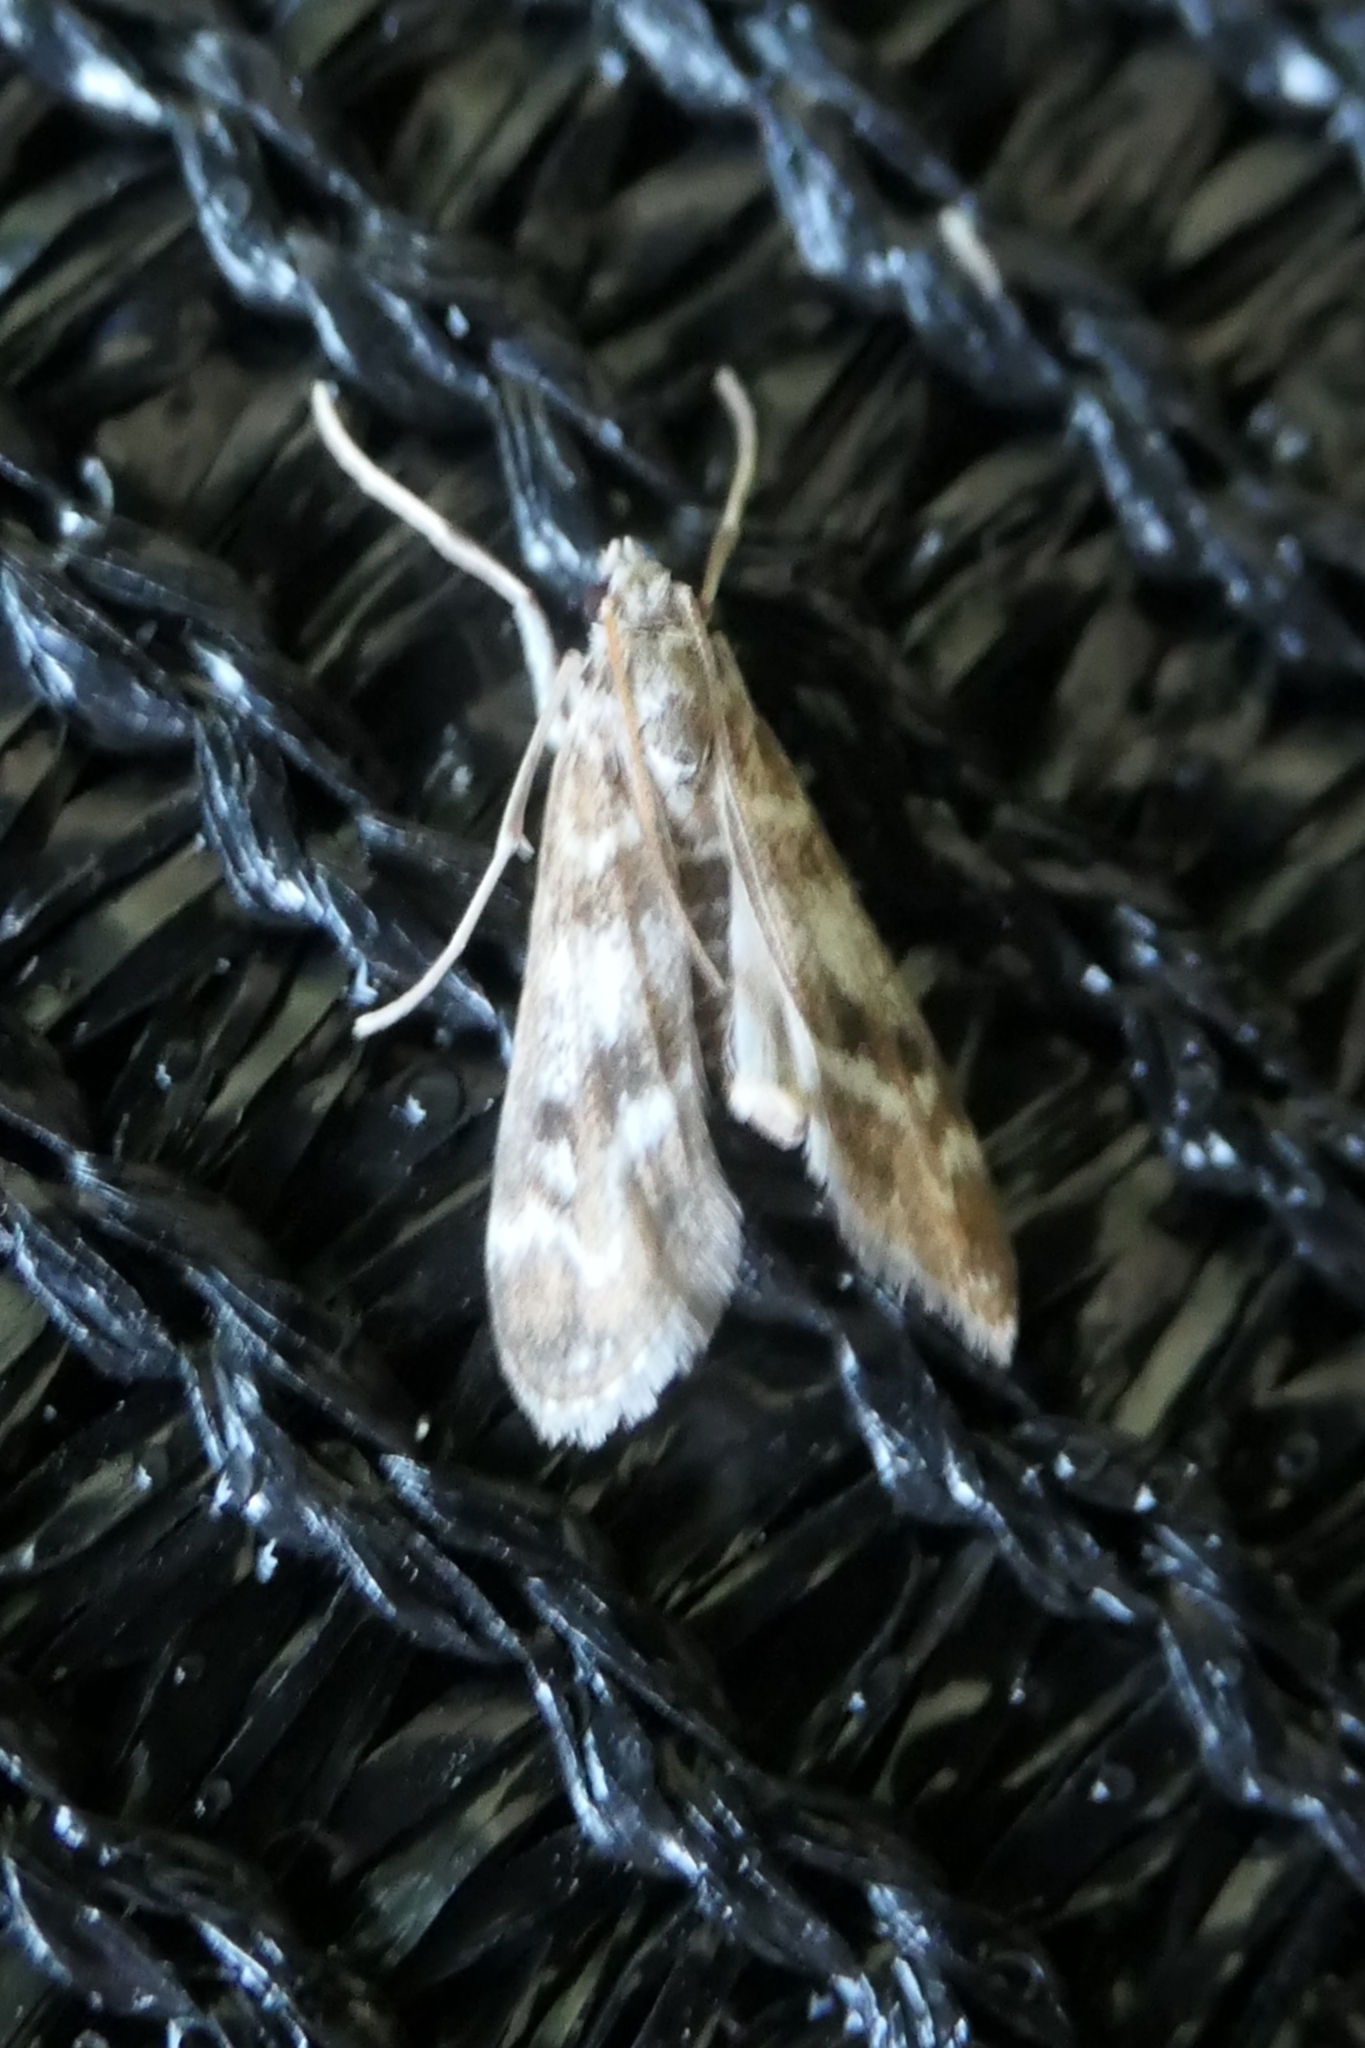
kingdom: Animalia
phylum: Arthropoda
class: Insecta
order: Lepidoptera
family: Crambidae
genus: Hygraula
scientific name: Hygraula nitens
